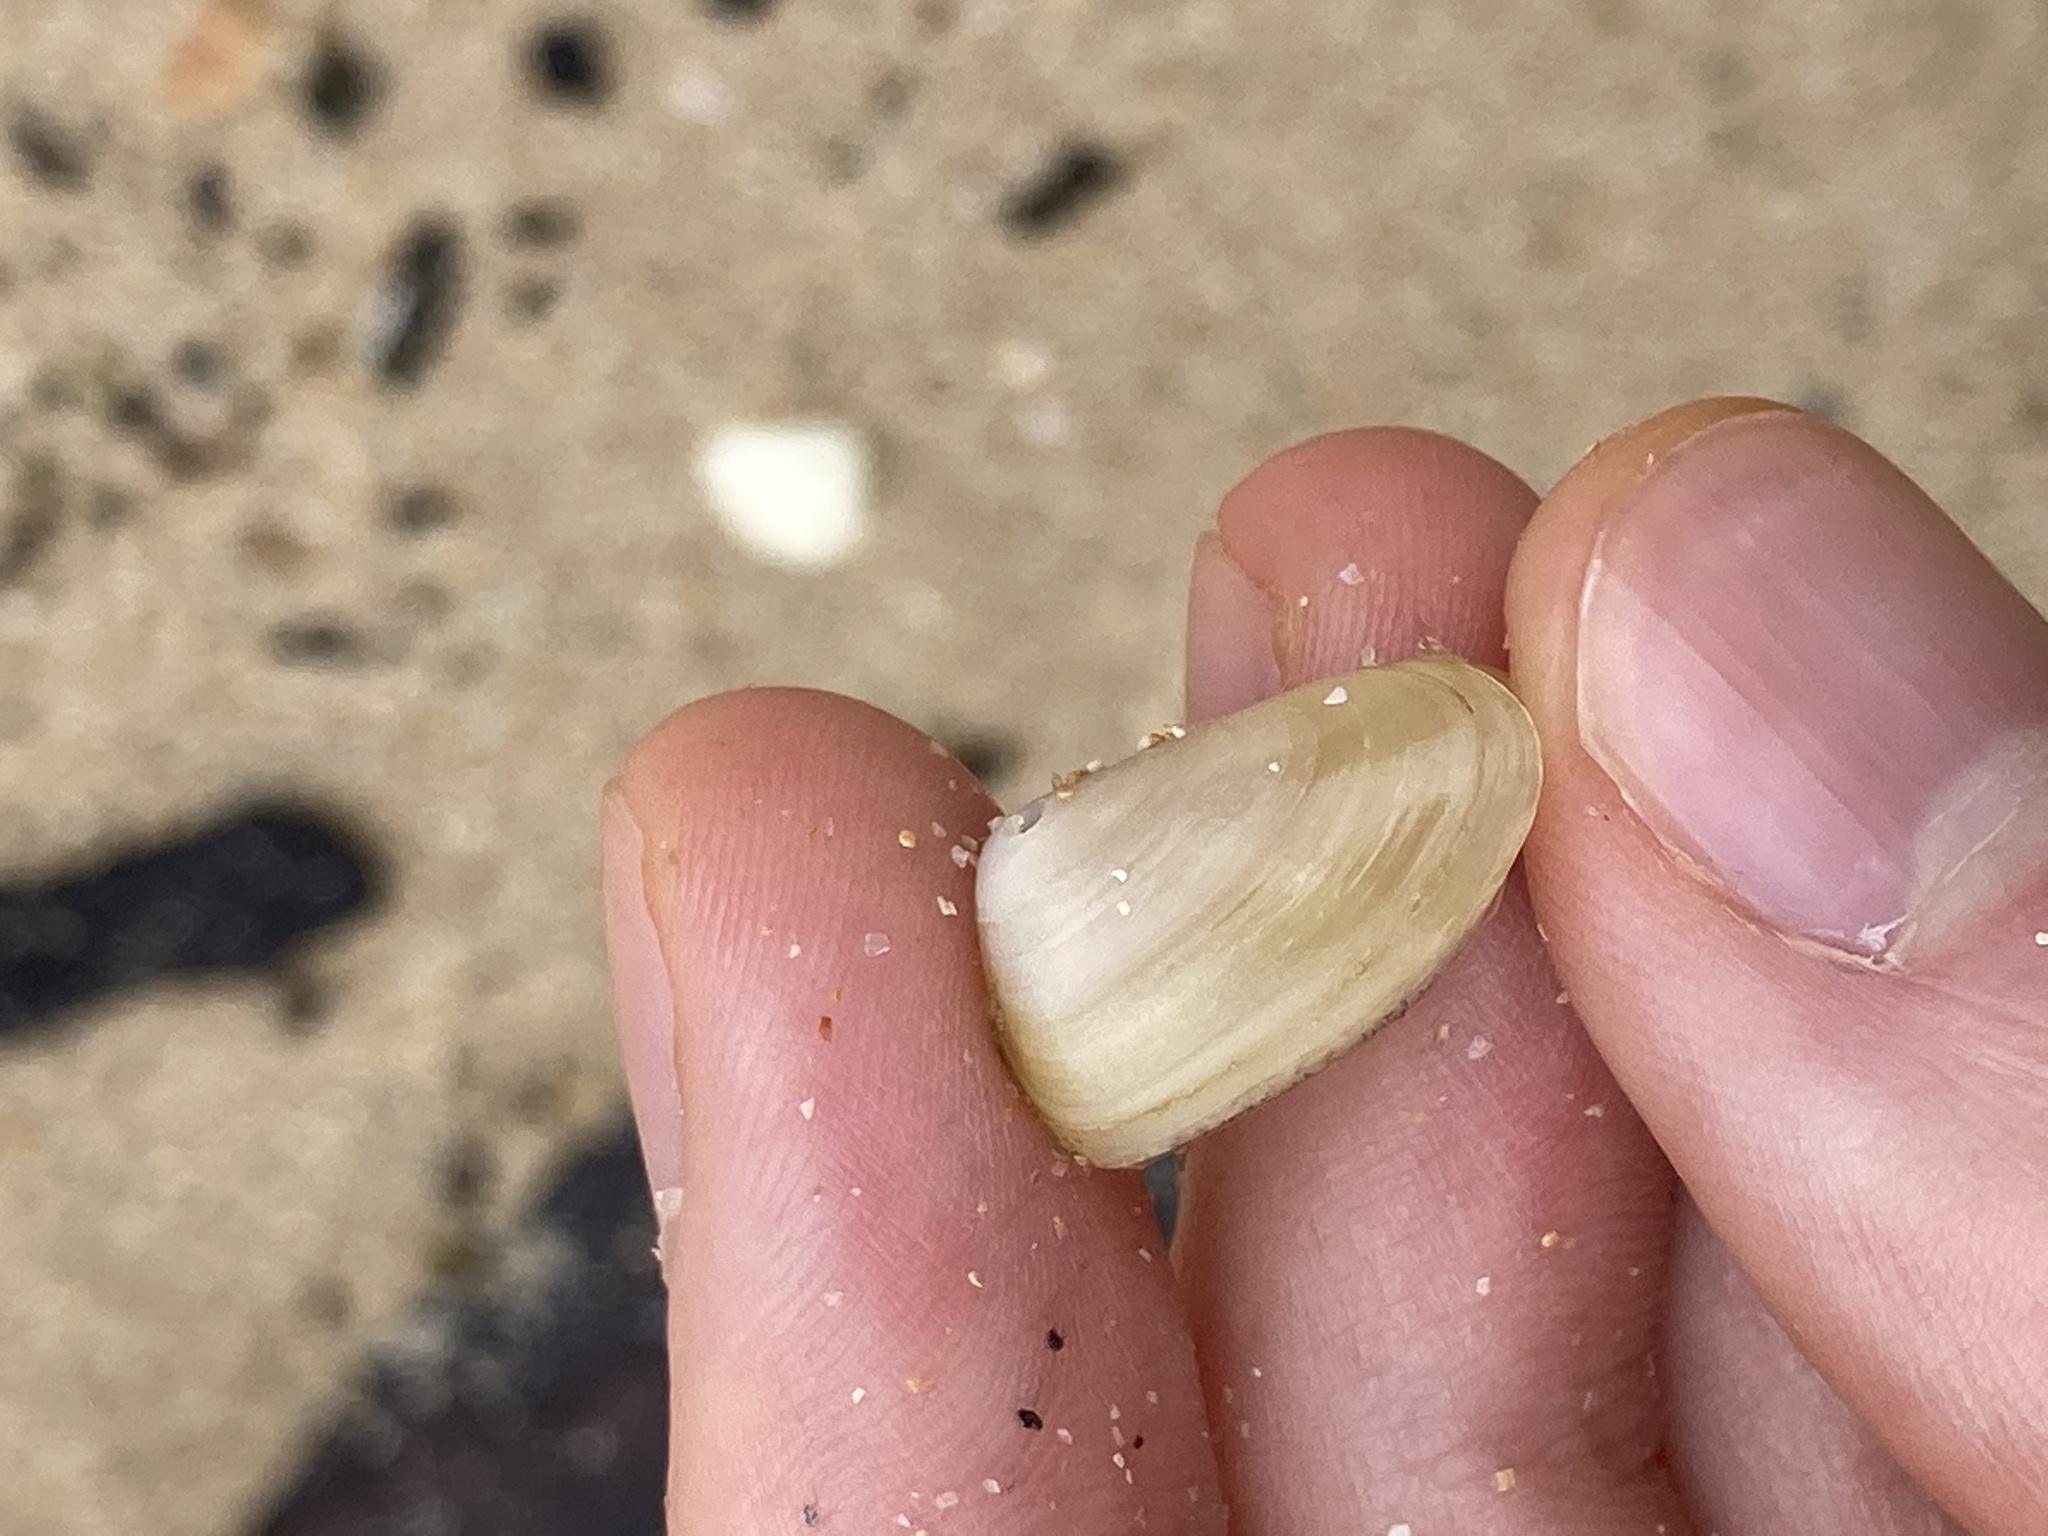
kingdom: Animalia
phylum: Mollusca
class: Bivalvia
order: Venerida
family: Mesodesmatidae
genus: Paphies
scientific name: Paphies angusta
